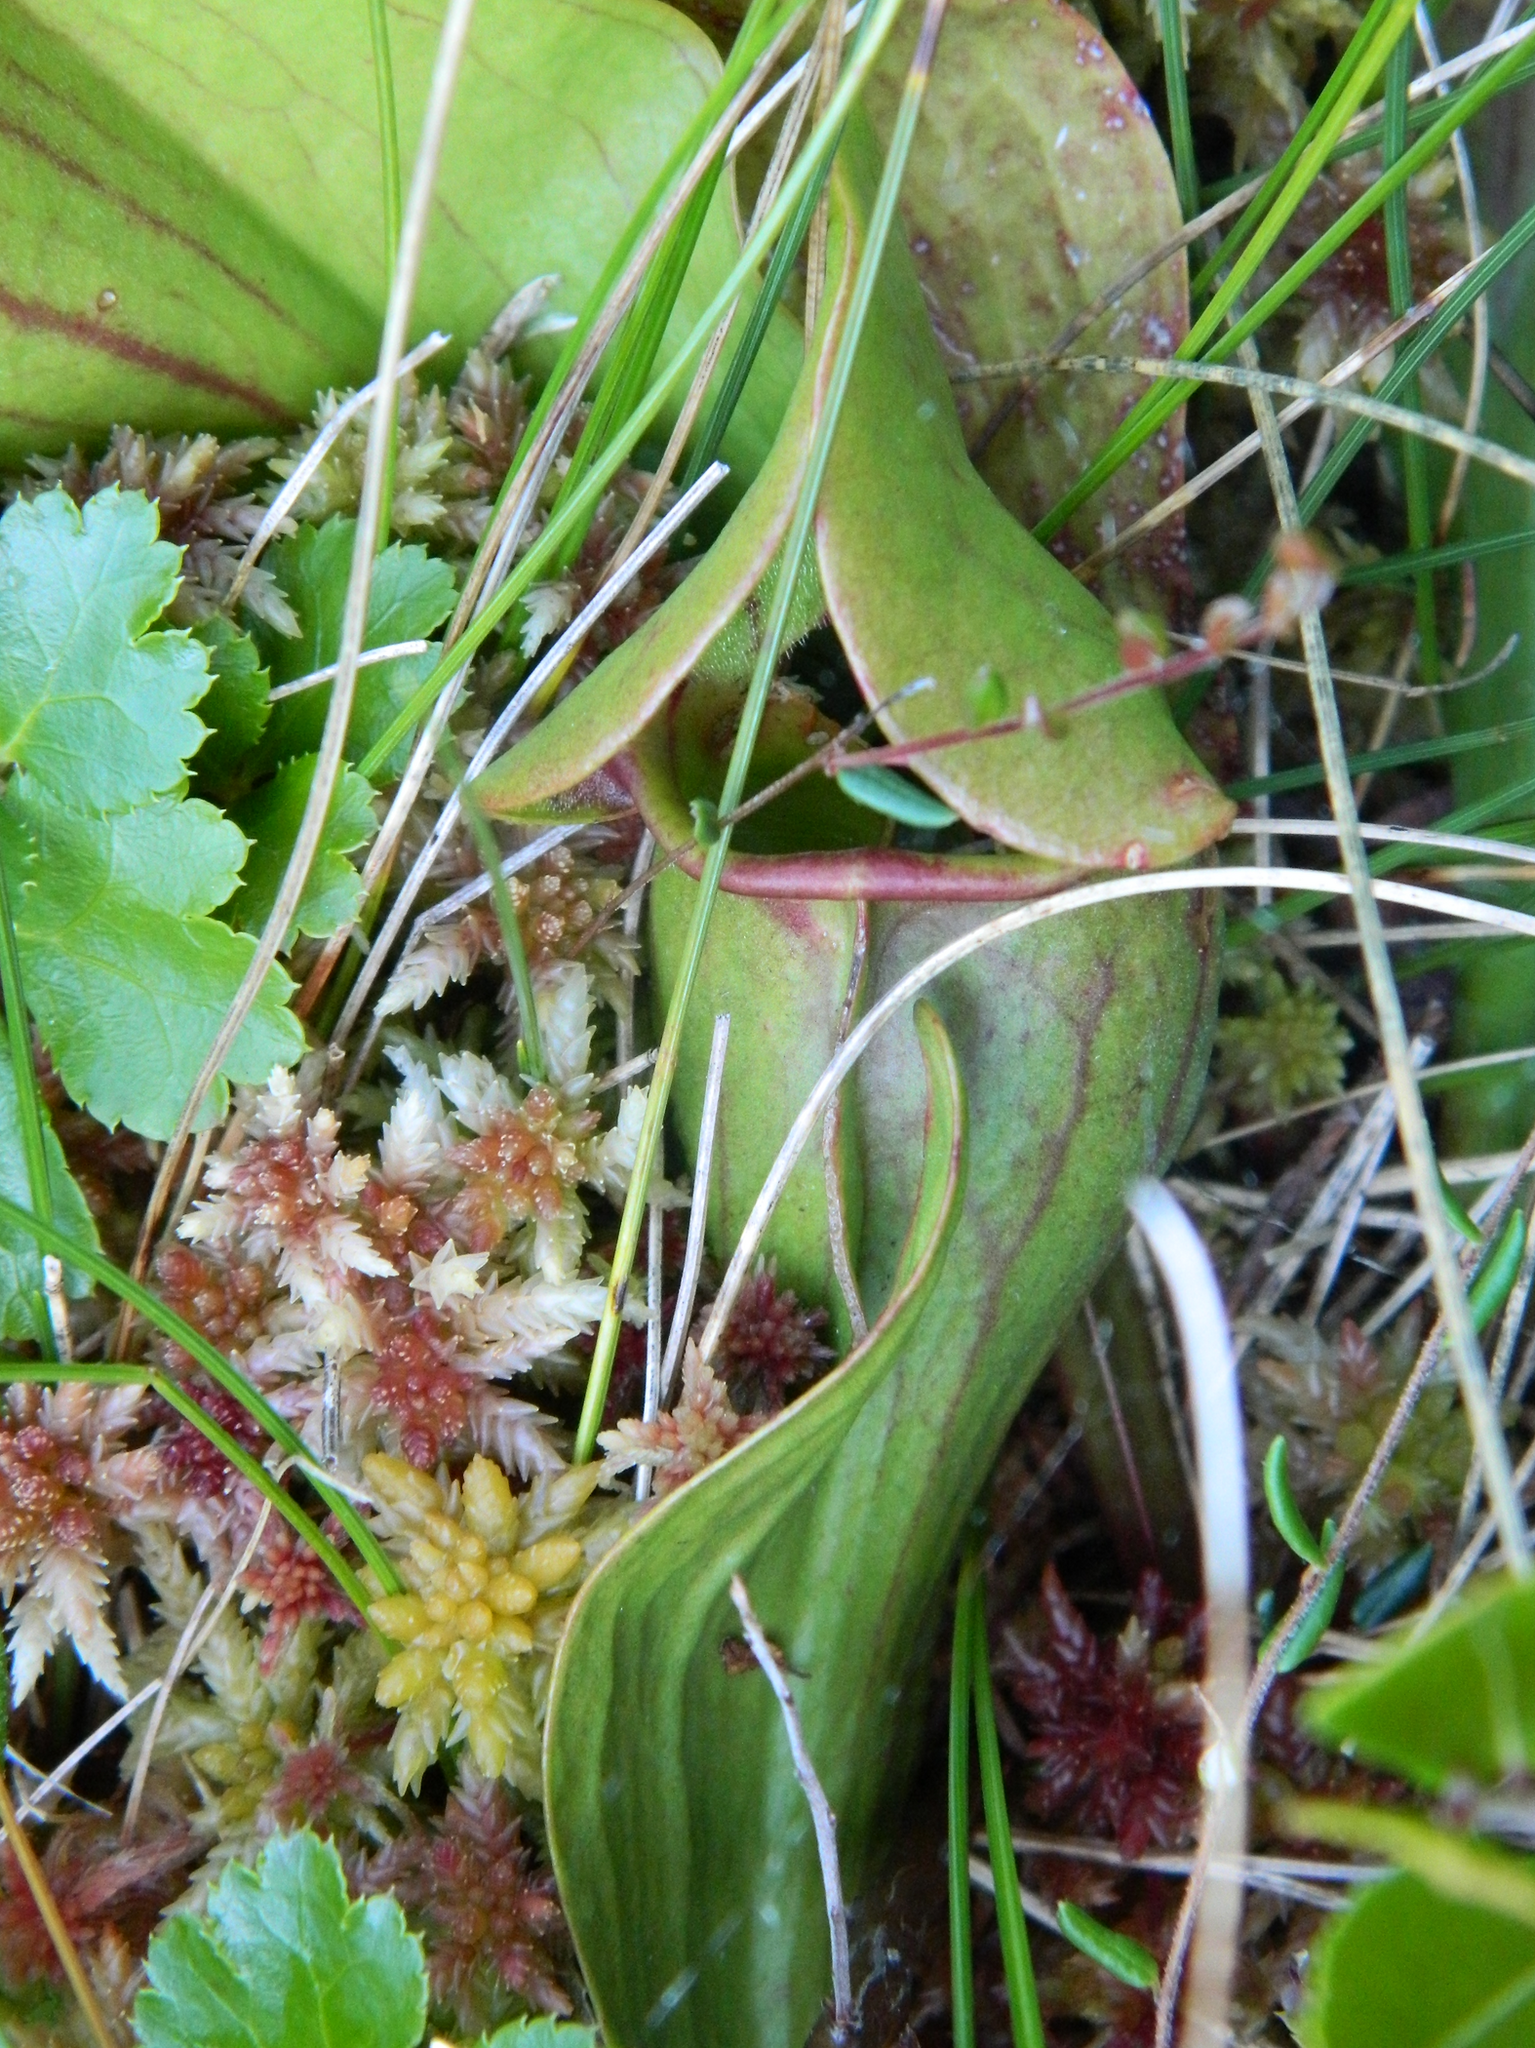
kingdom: Plantae
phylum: Tracheophyta
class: Magnoliopsida
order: Ericales
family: Sarraceniaceae
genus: Sarracenia
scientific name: Sarracenia purpurea
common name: Pitcherplant
